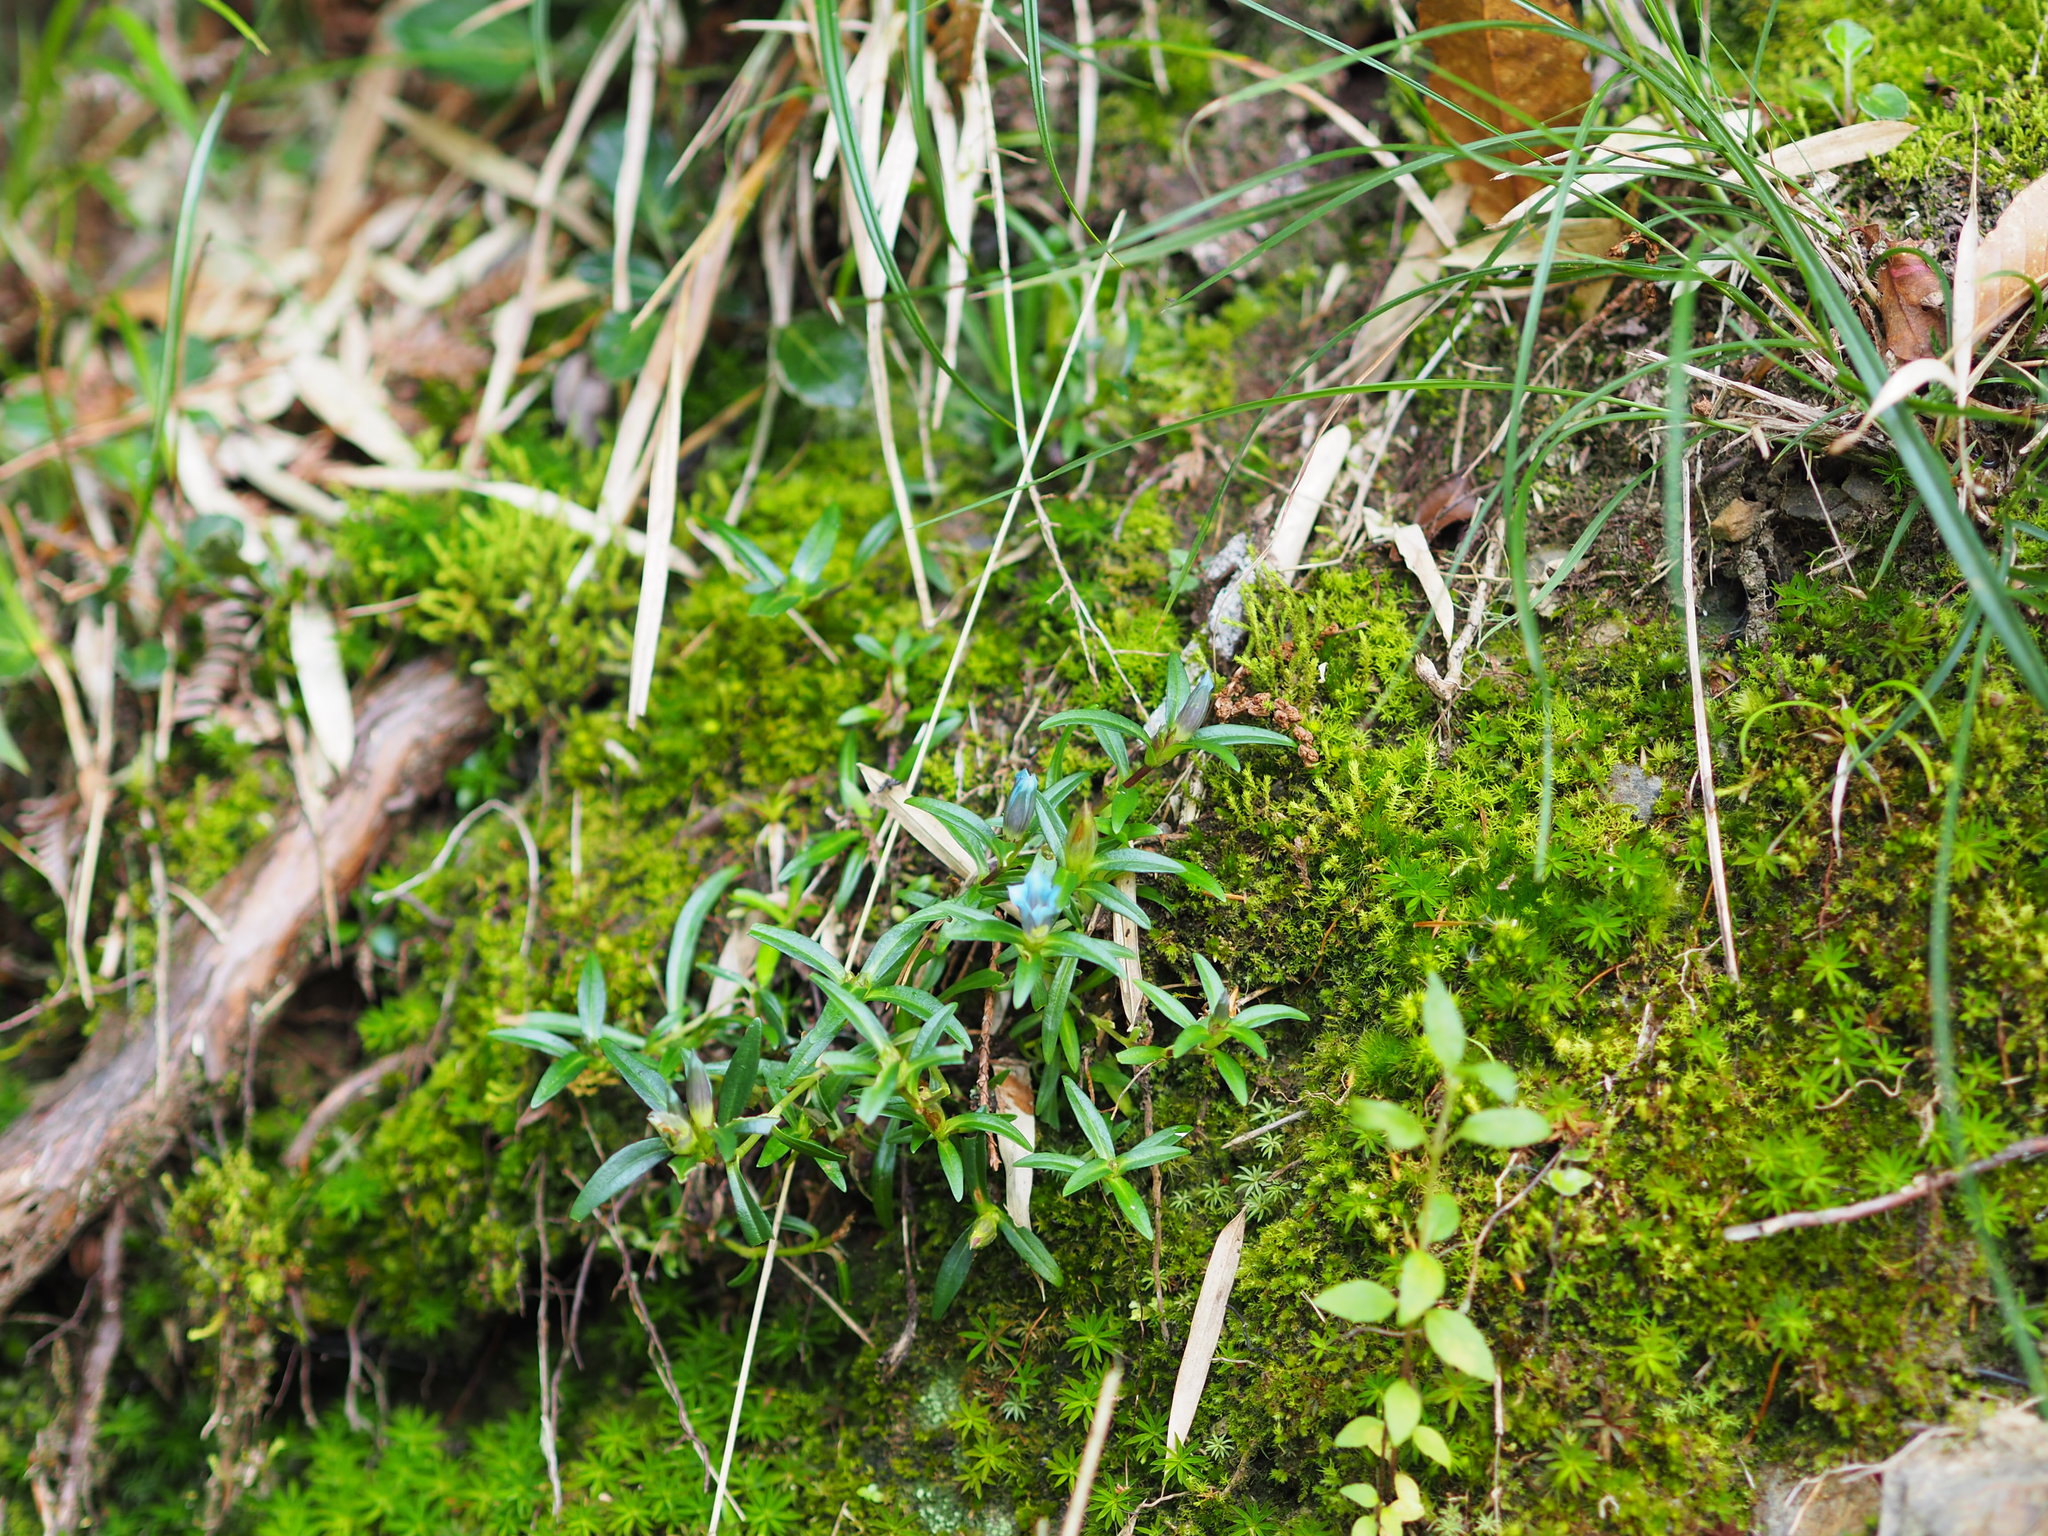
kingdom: Plantae
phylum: Tracheophyta
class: Magnoliopsida
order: Gentianales
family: Gentianaceae
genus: Gentiana
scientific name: Gentiana davidii
